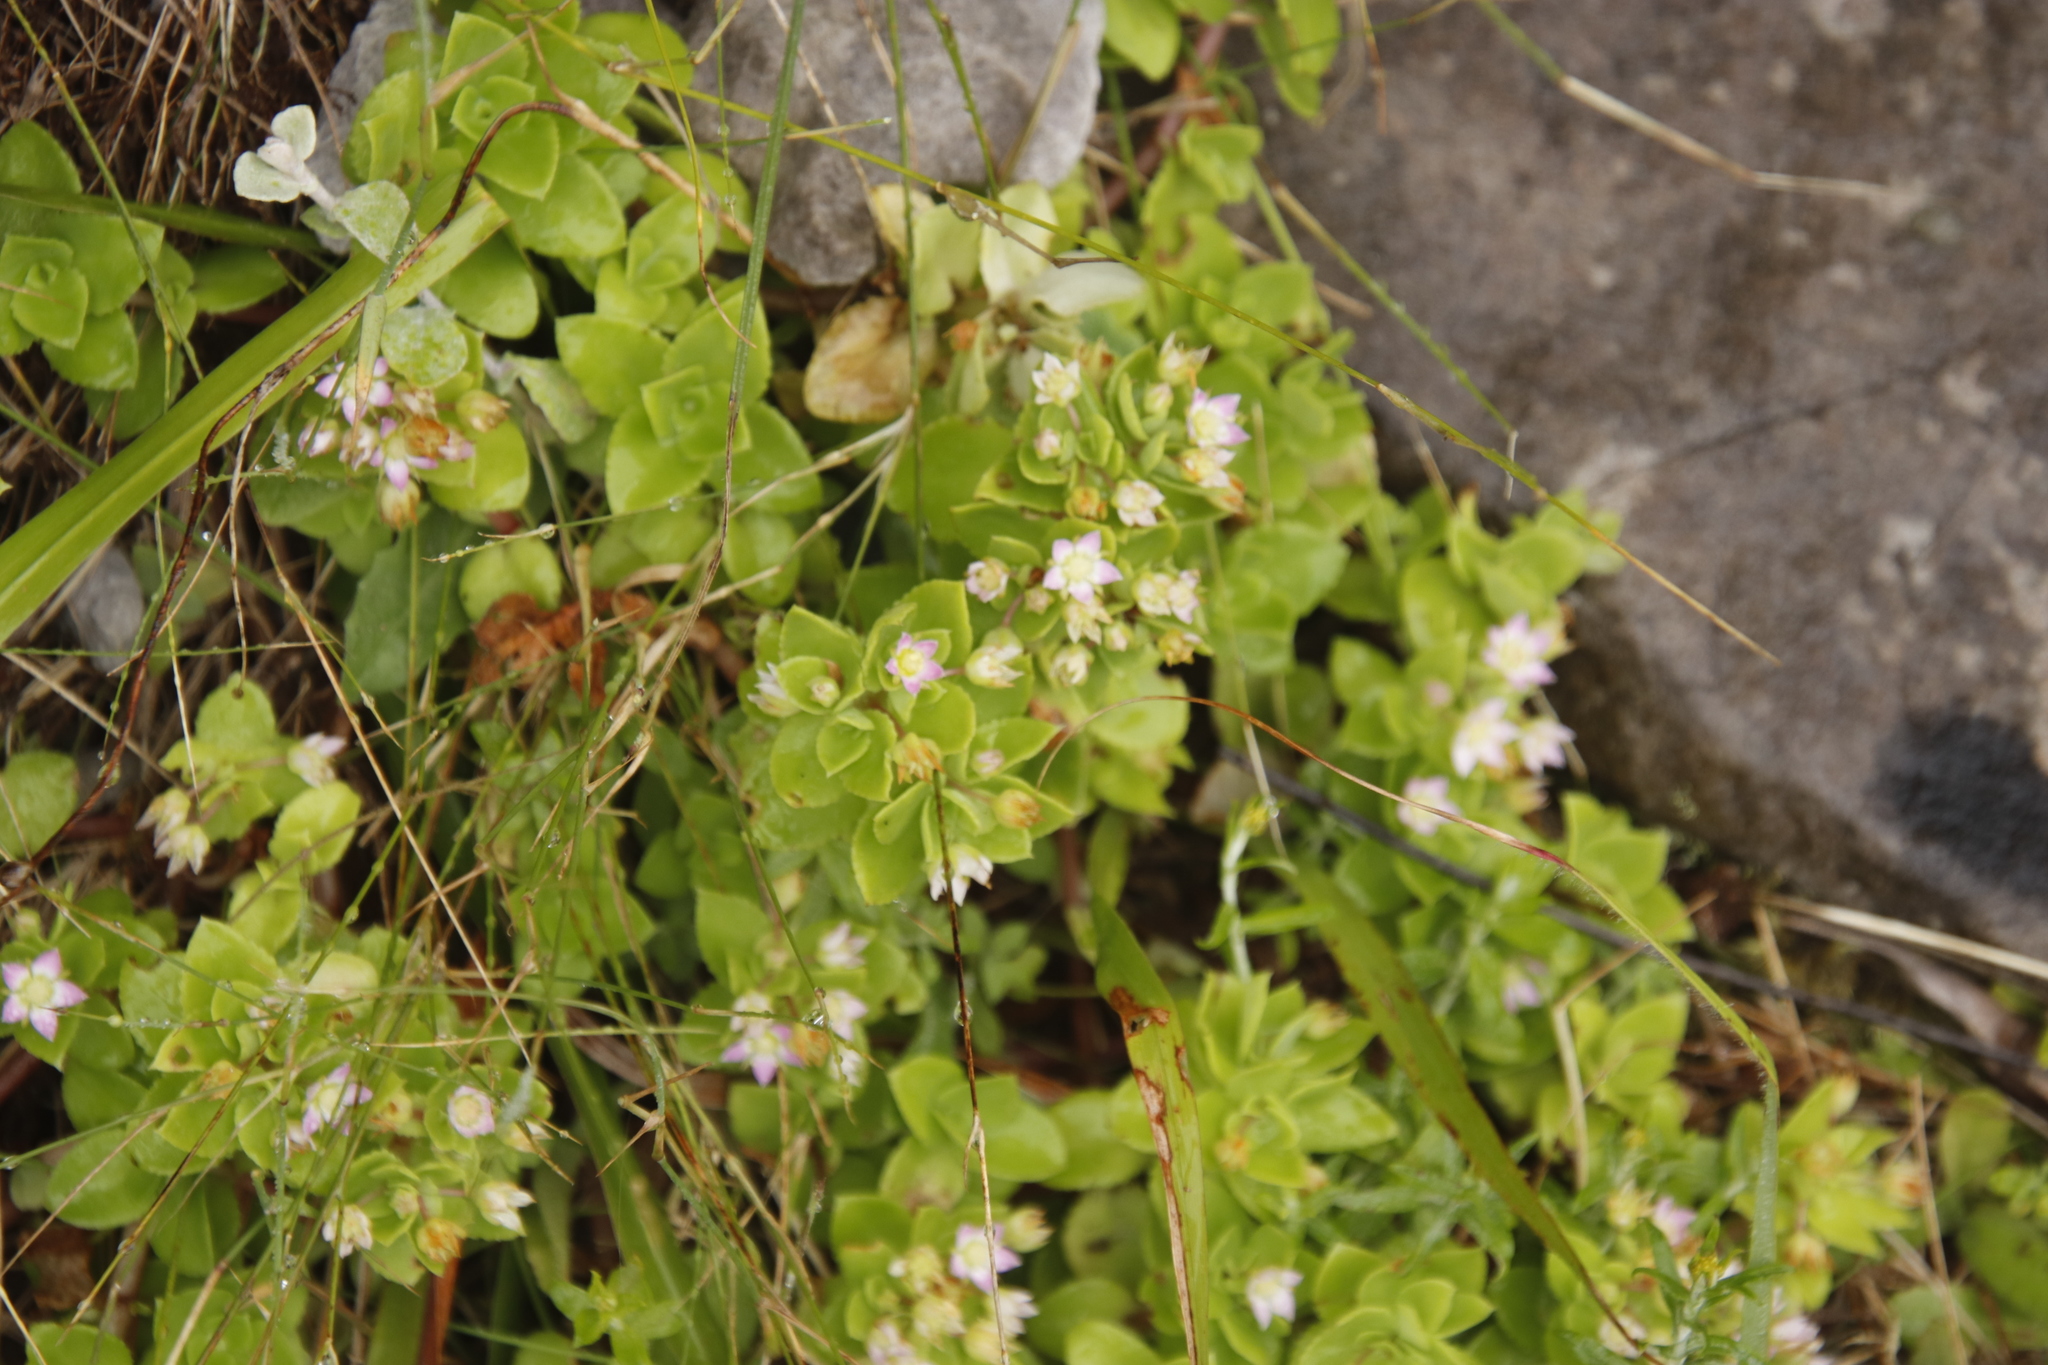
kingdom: Plantae
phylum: Tracheophyta
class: Magnoliopsida
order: Saxifragales
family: Crassulaceae
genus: Crassula
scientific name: Crassula pellucida
